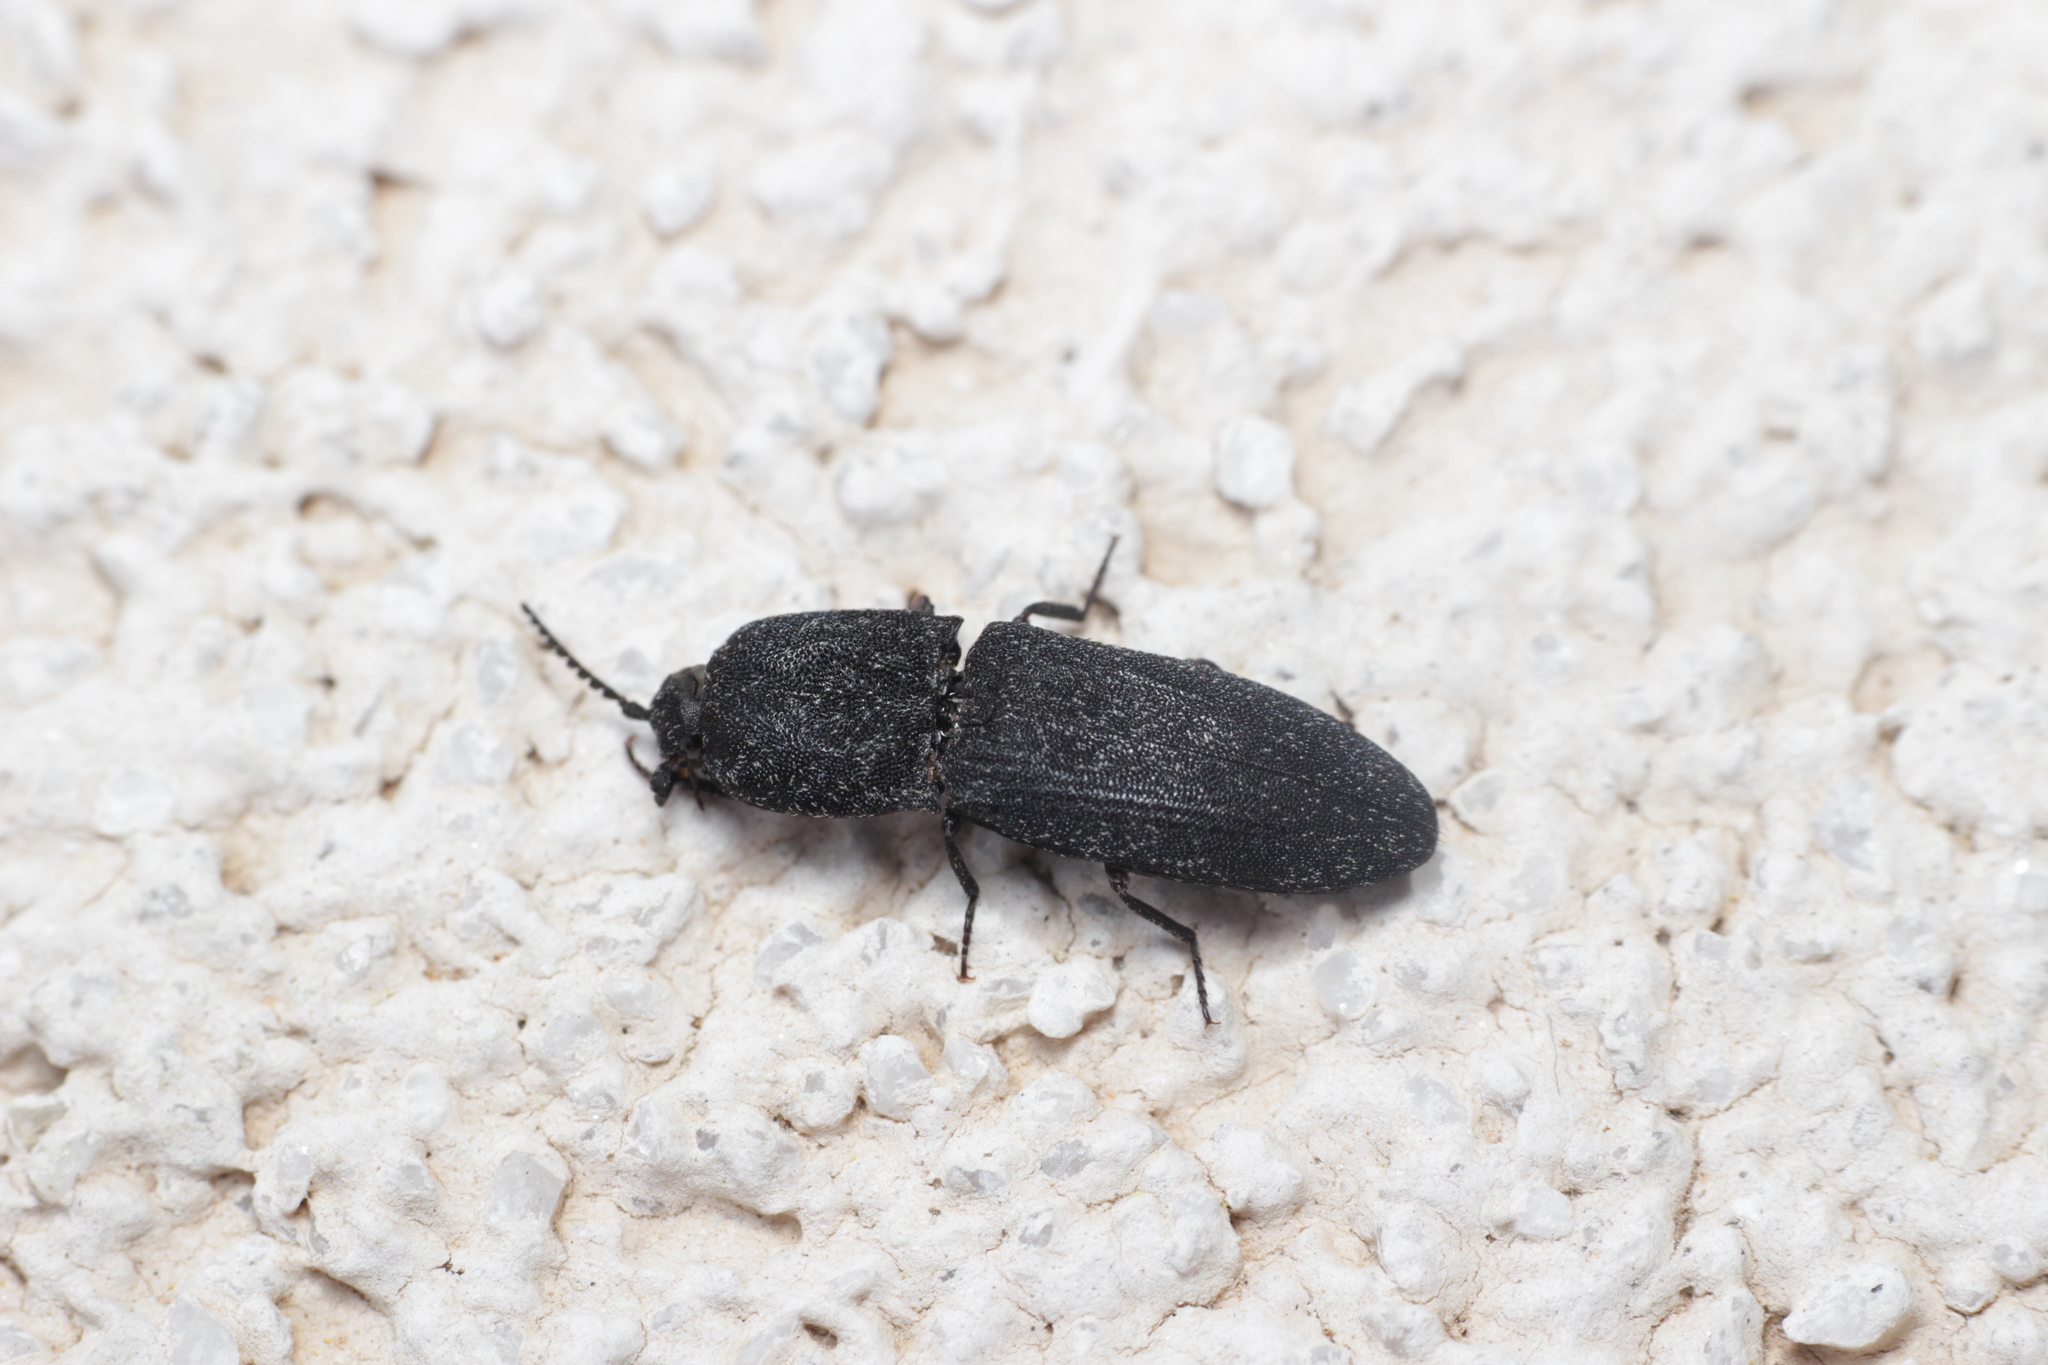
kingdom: Animalia
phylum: Arthropoda
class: Insecta
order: Coleoptera
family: Elateridae
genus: Lacon
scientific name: Lacon punctatus
